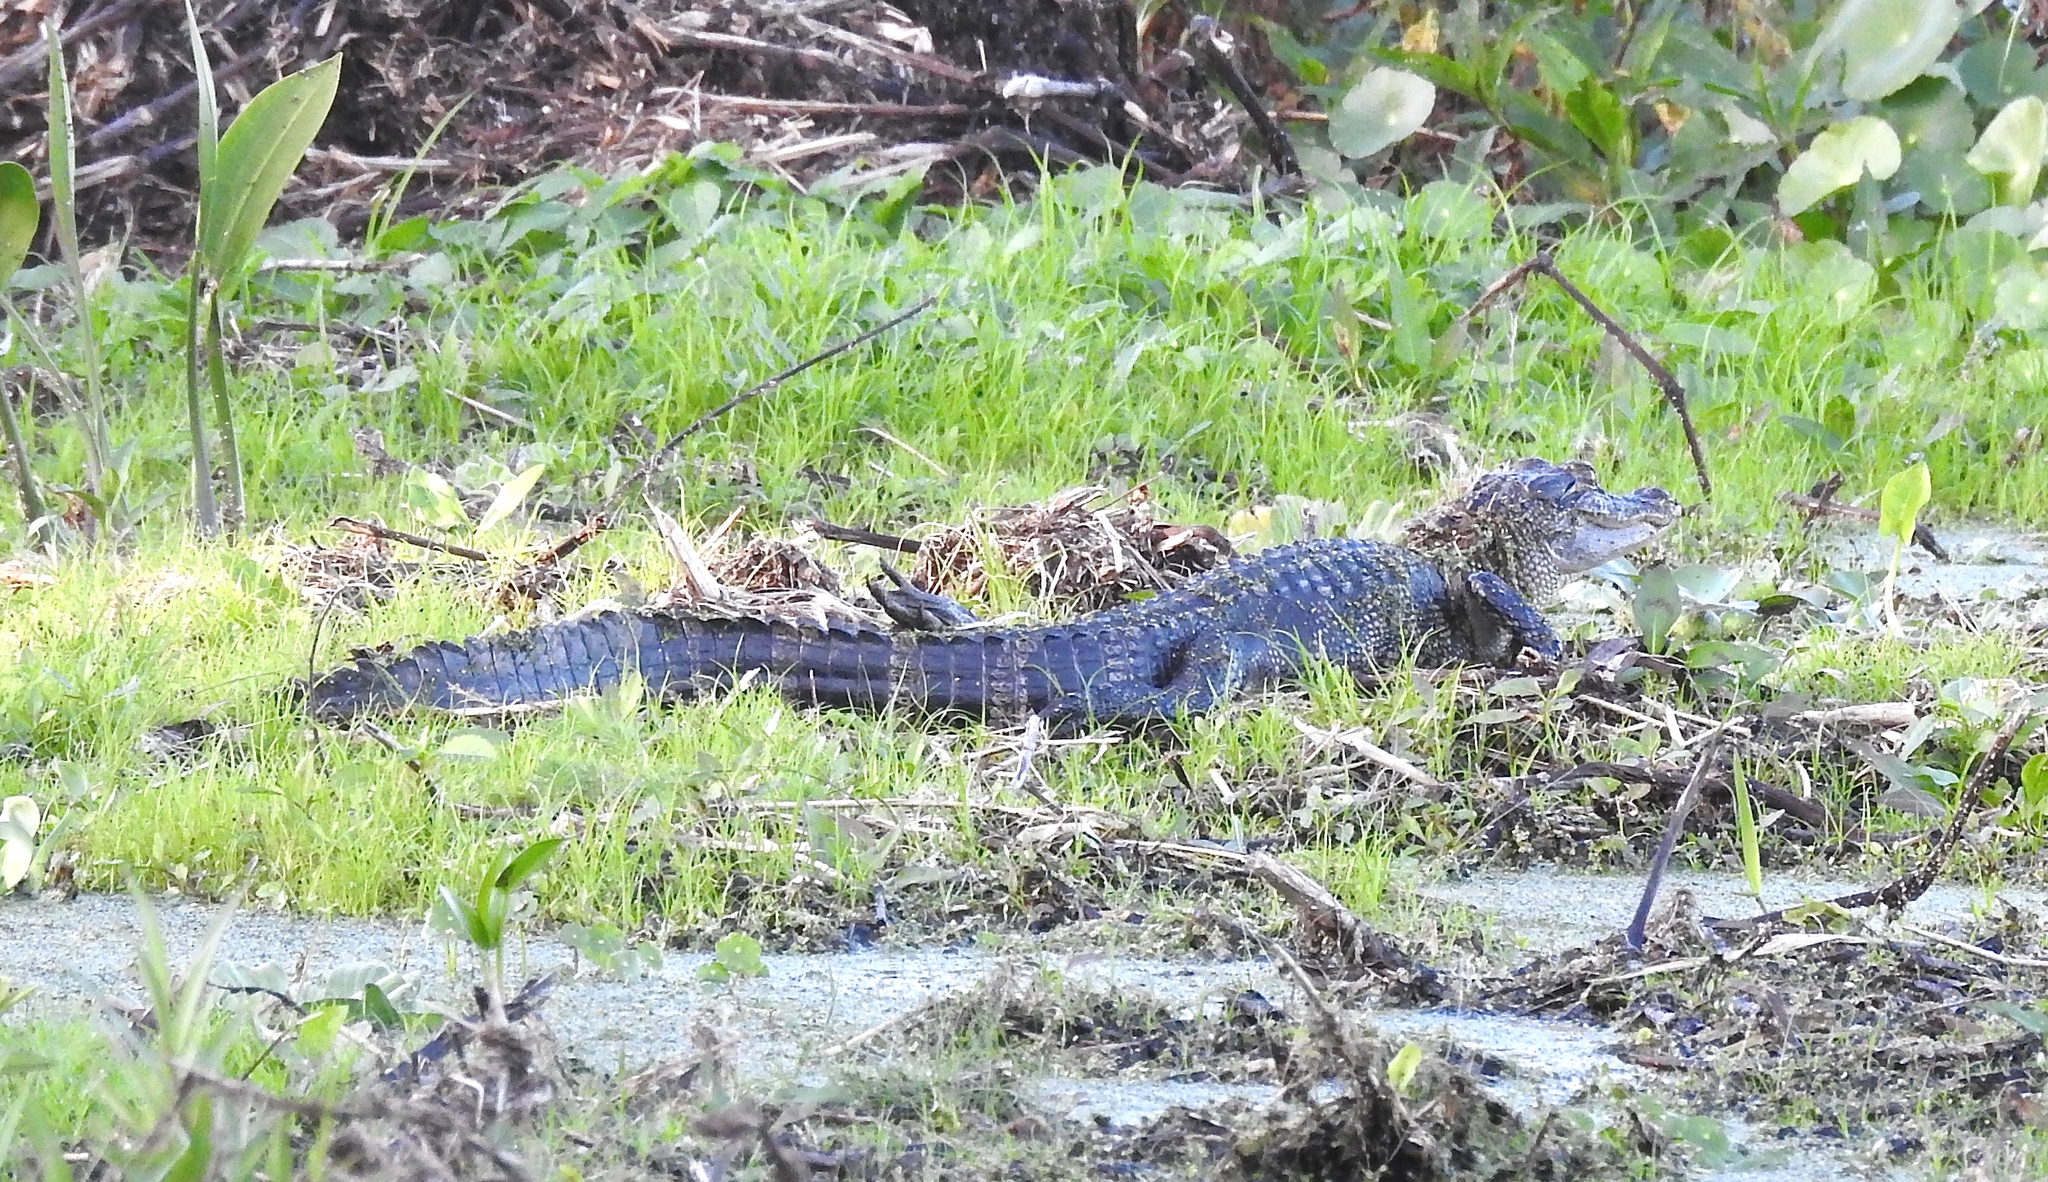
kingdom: Animalia
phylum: Chordata
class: Crocodylia
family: Alligatoridae
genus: Alligator
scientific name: Alligator mississippiensis
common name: American alligator
